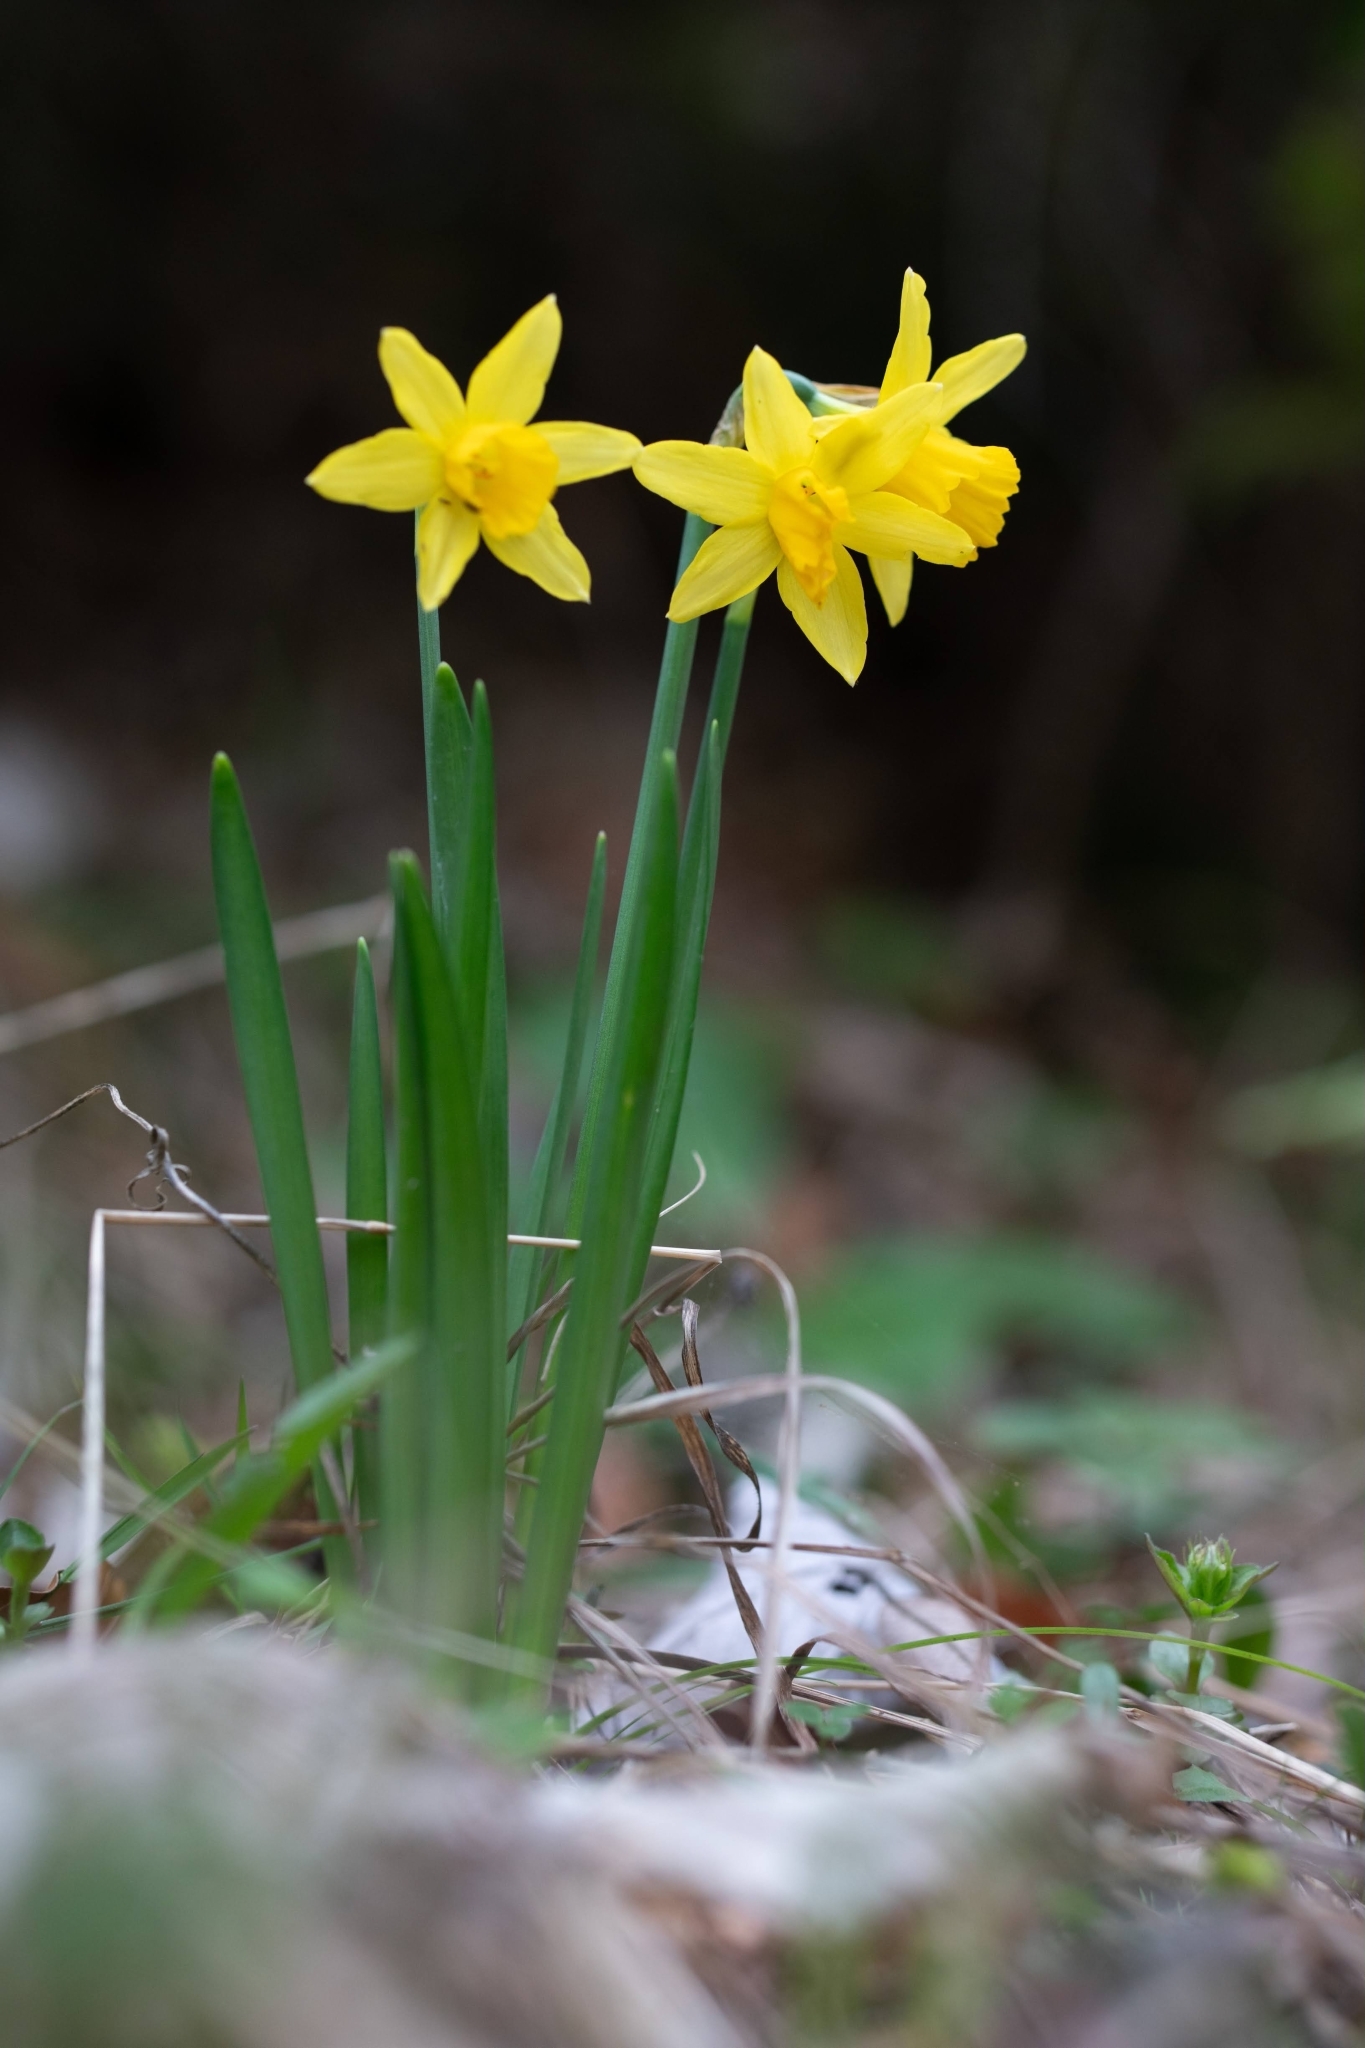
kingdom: Plantae
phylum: Tracheophyta
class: Liliopsida
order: Asparagales
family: Amaryllidaceae
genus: Narcissus
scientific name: Narcissus pseudonarcissus
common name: Daffodil
